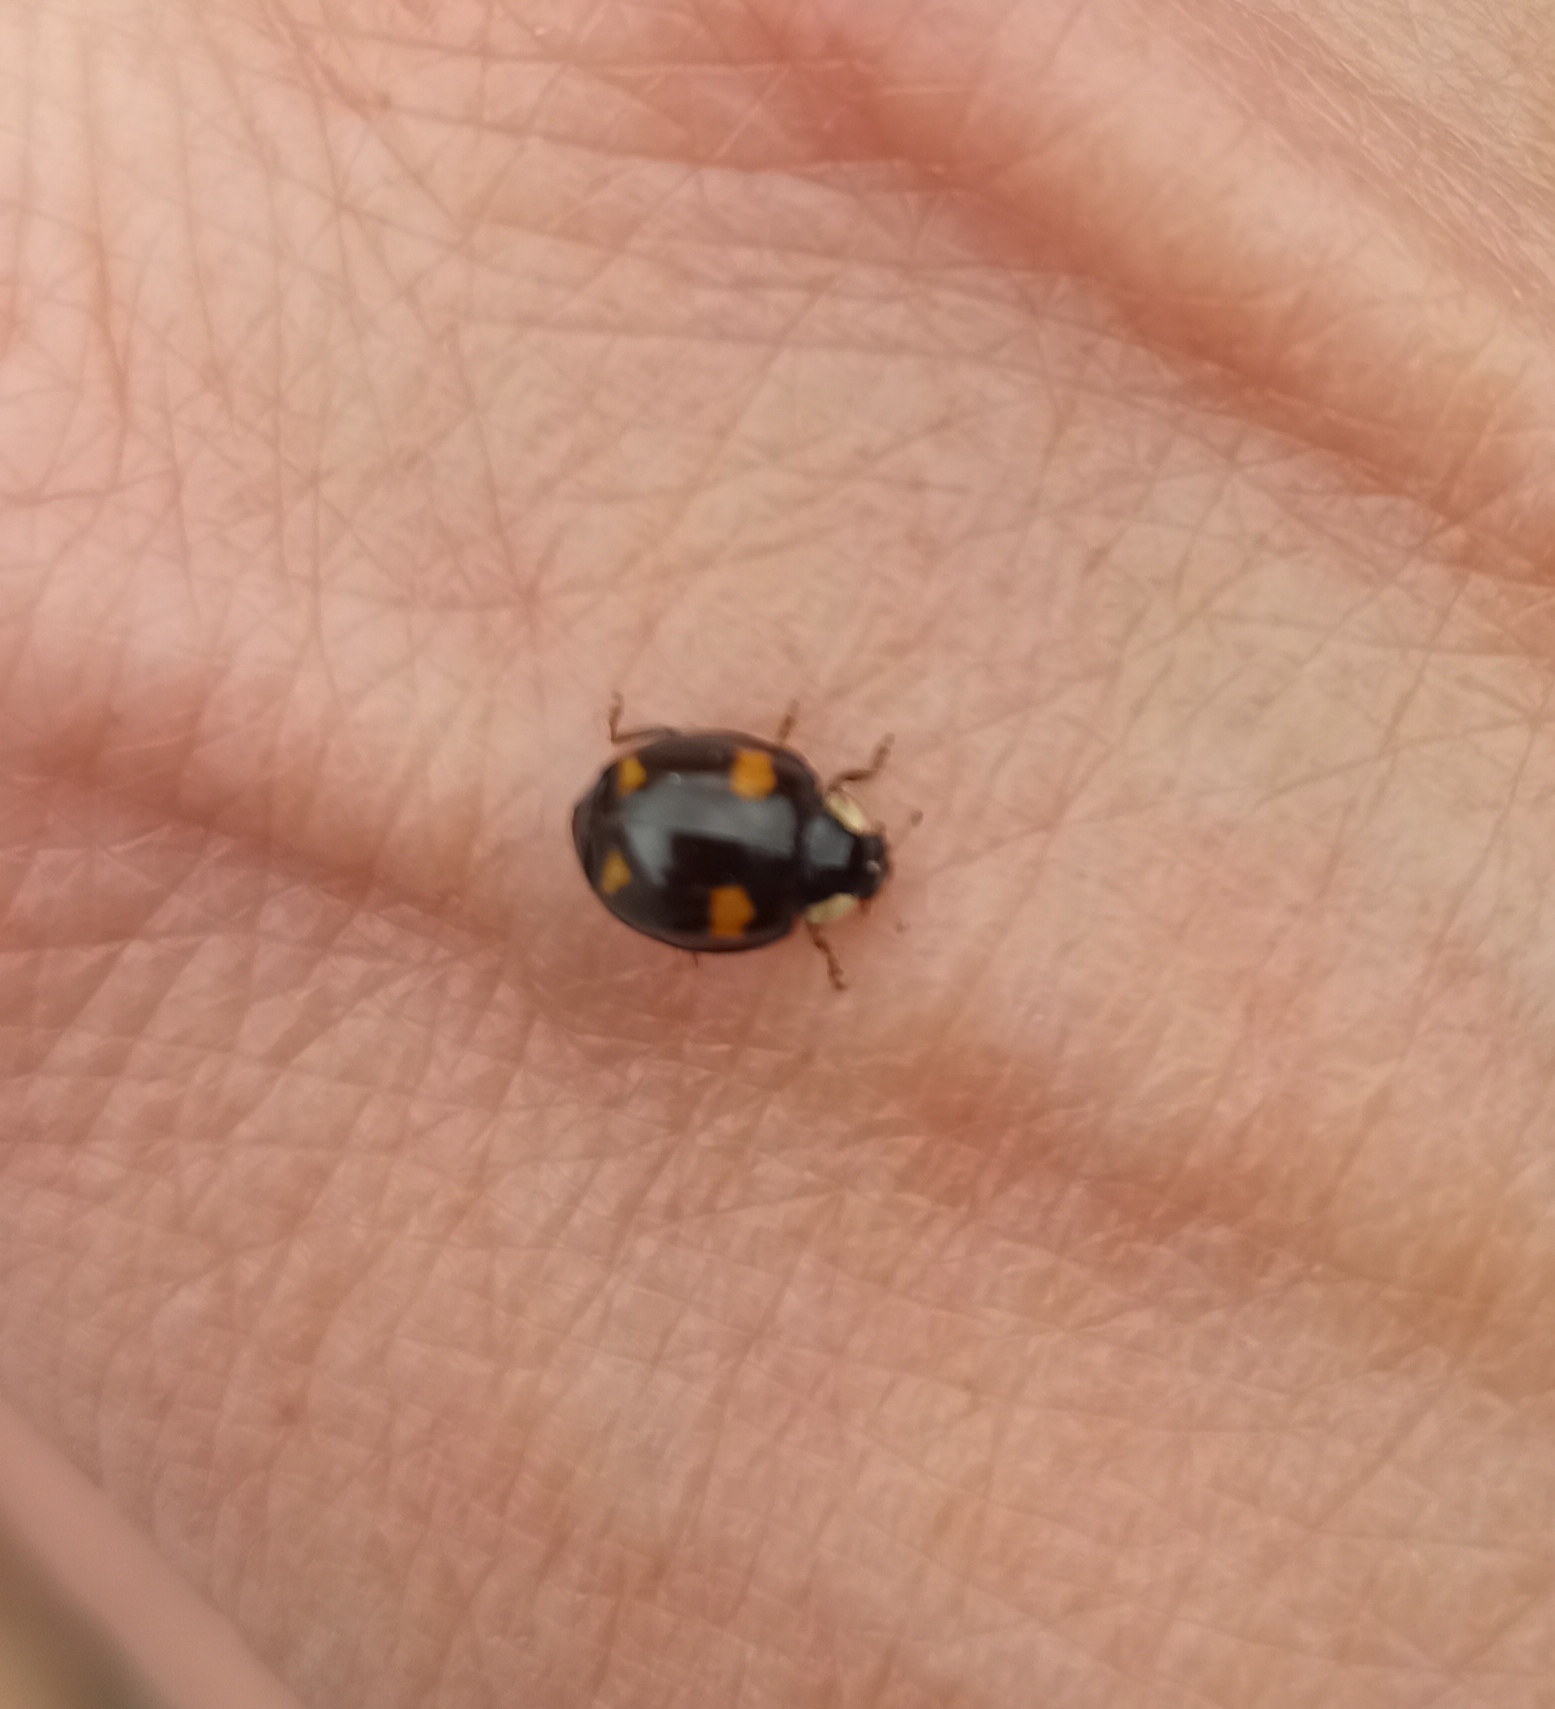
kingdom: Animalia
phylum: Arthropoda
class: Insecta
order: Coleoptera
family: Coccinellidae
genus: Harmonia
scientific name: Harmonia axyridis
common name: Harlequin ladybird
